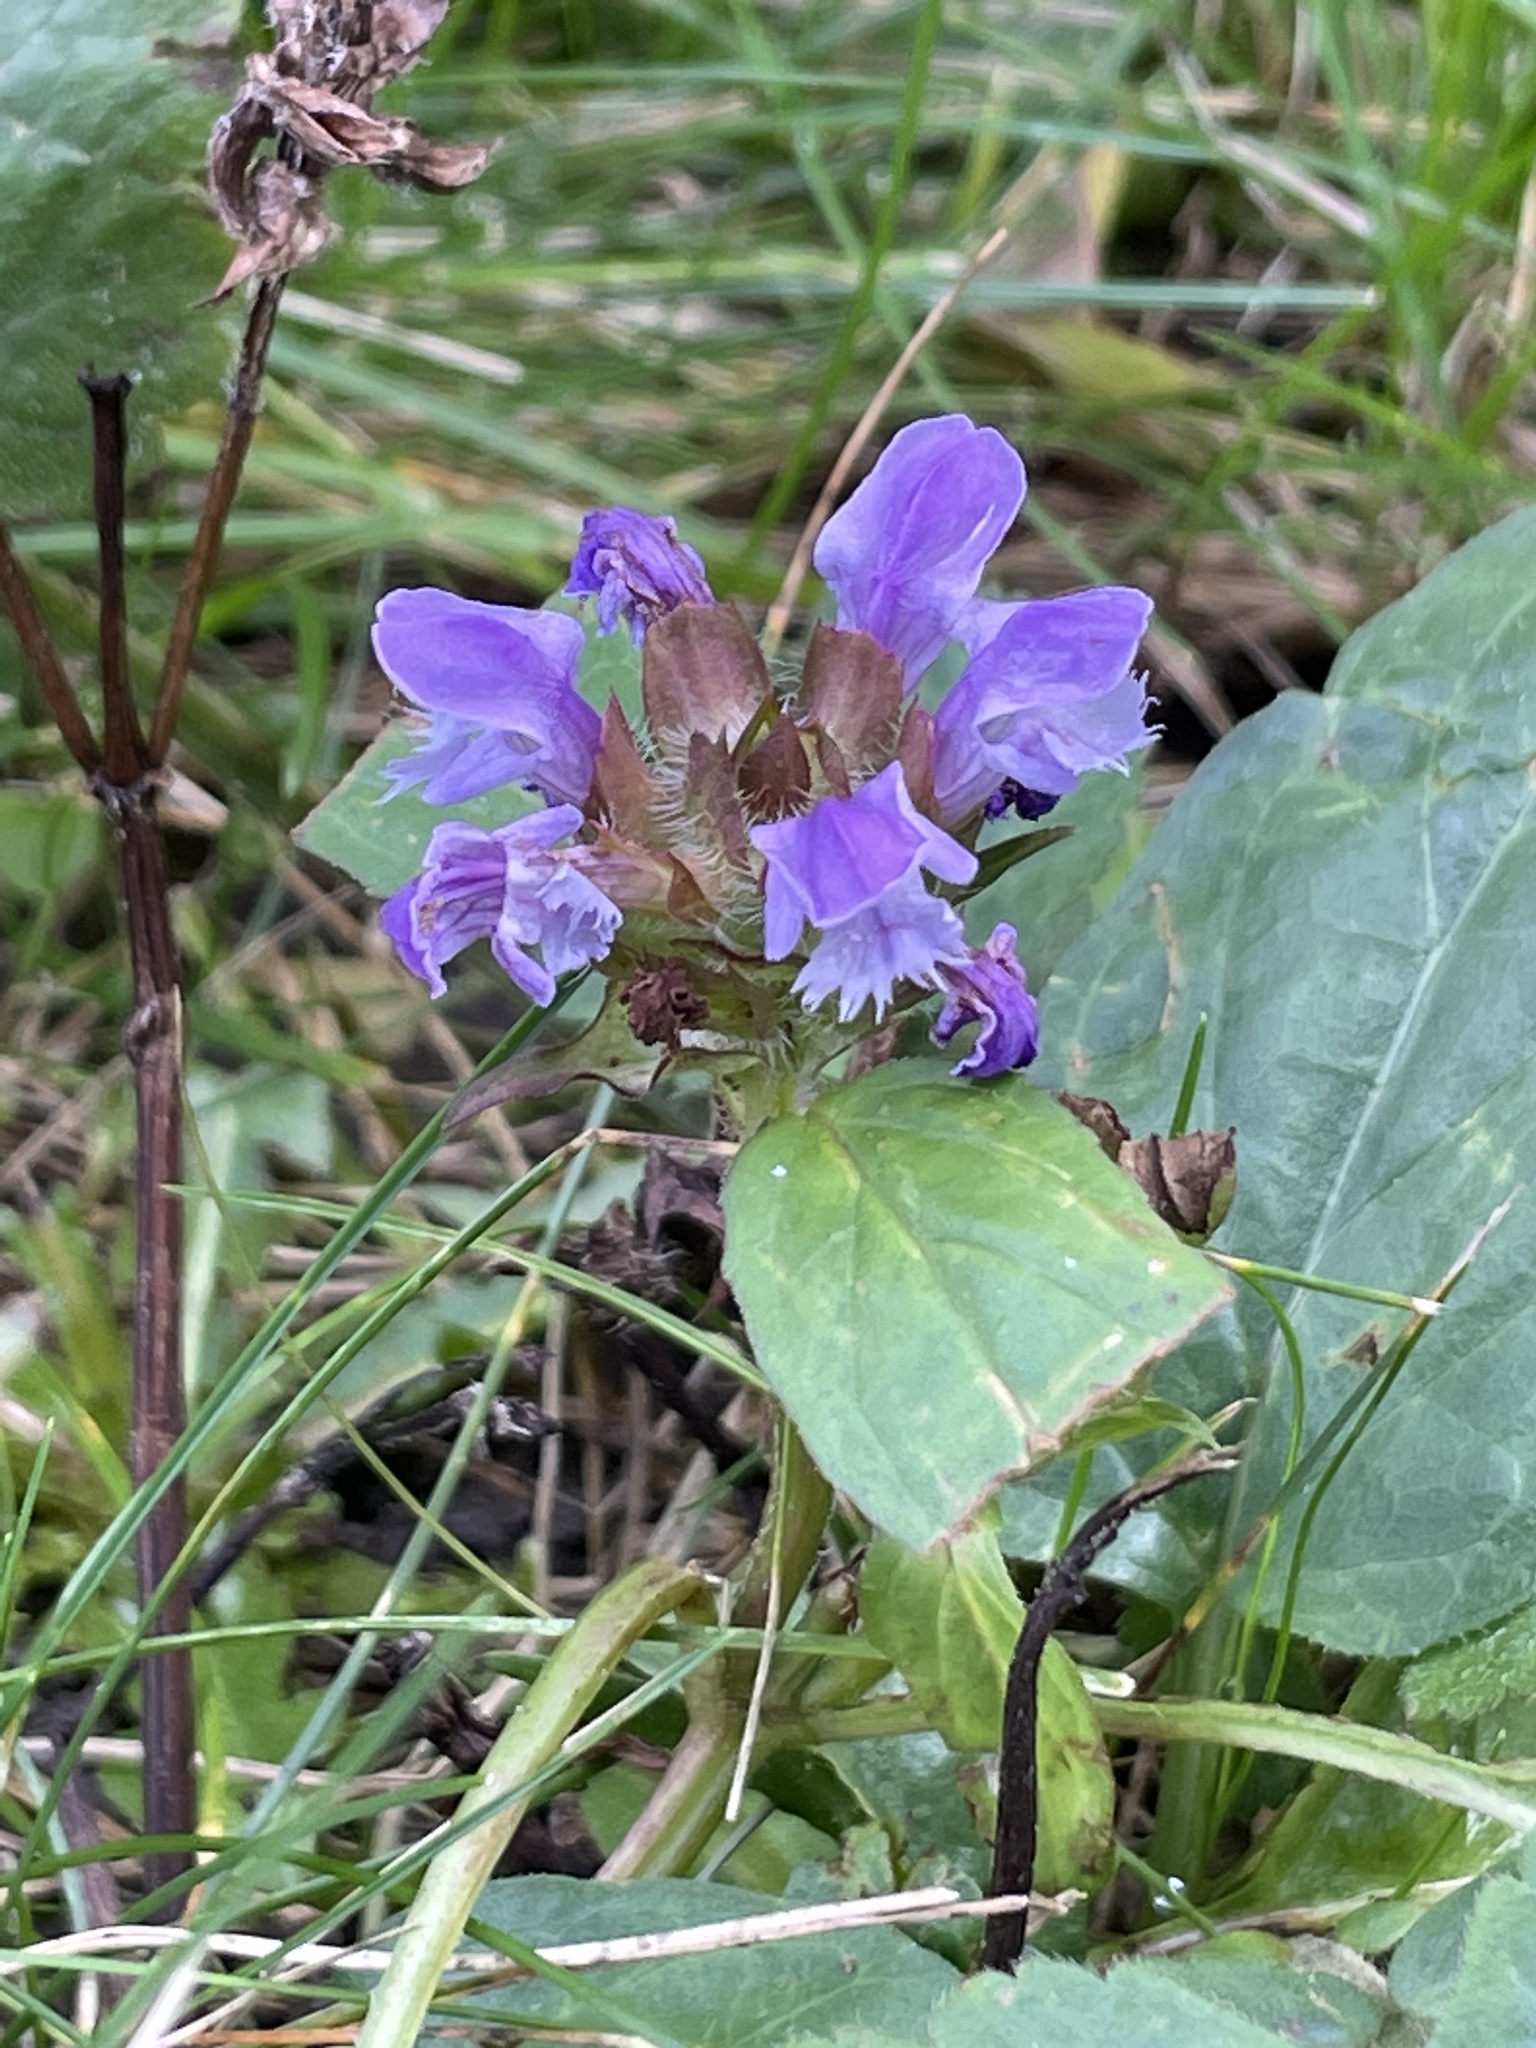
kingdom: Plantae
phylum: Tracheophyta
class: Magnoliopsida
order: Lamiales
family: Lamiaceae
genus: Prunella
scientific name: Prunella vulgaris
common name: Heal-all
